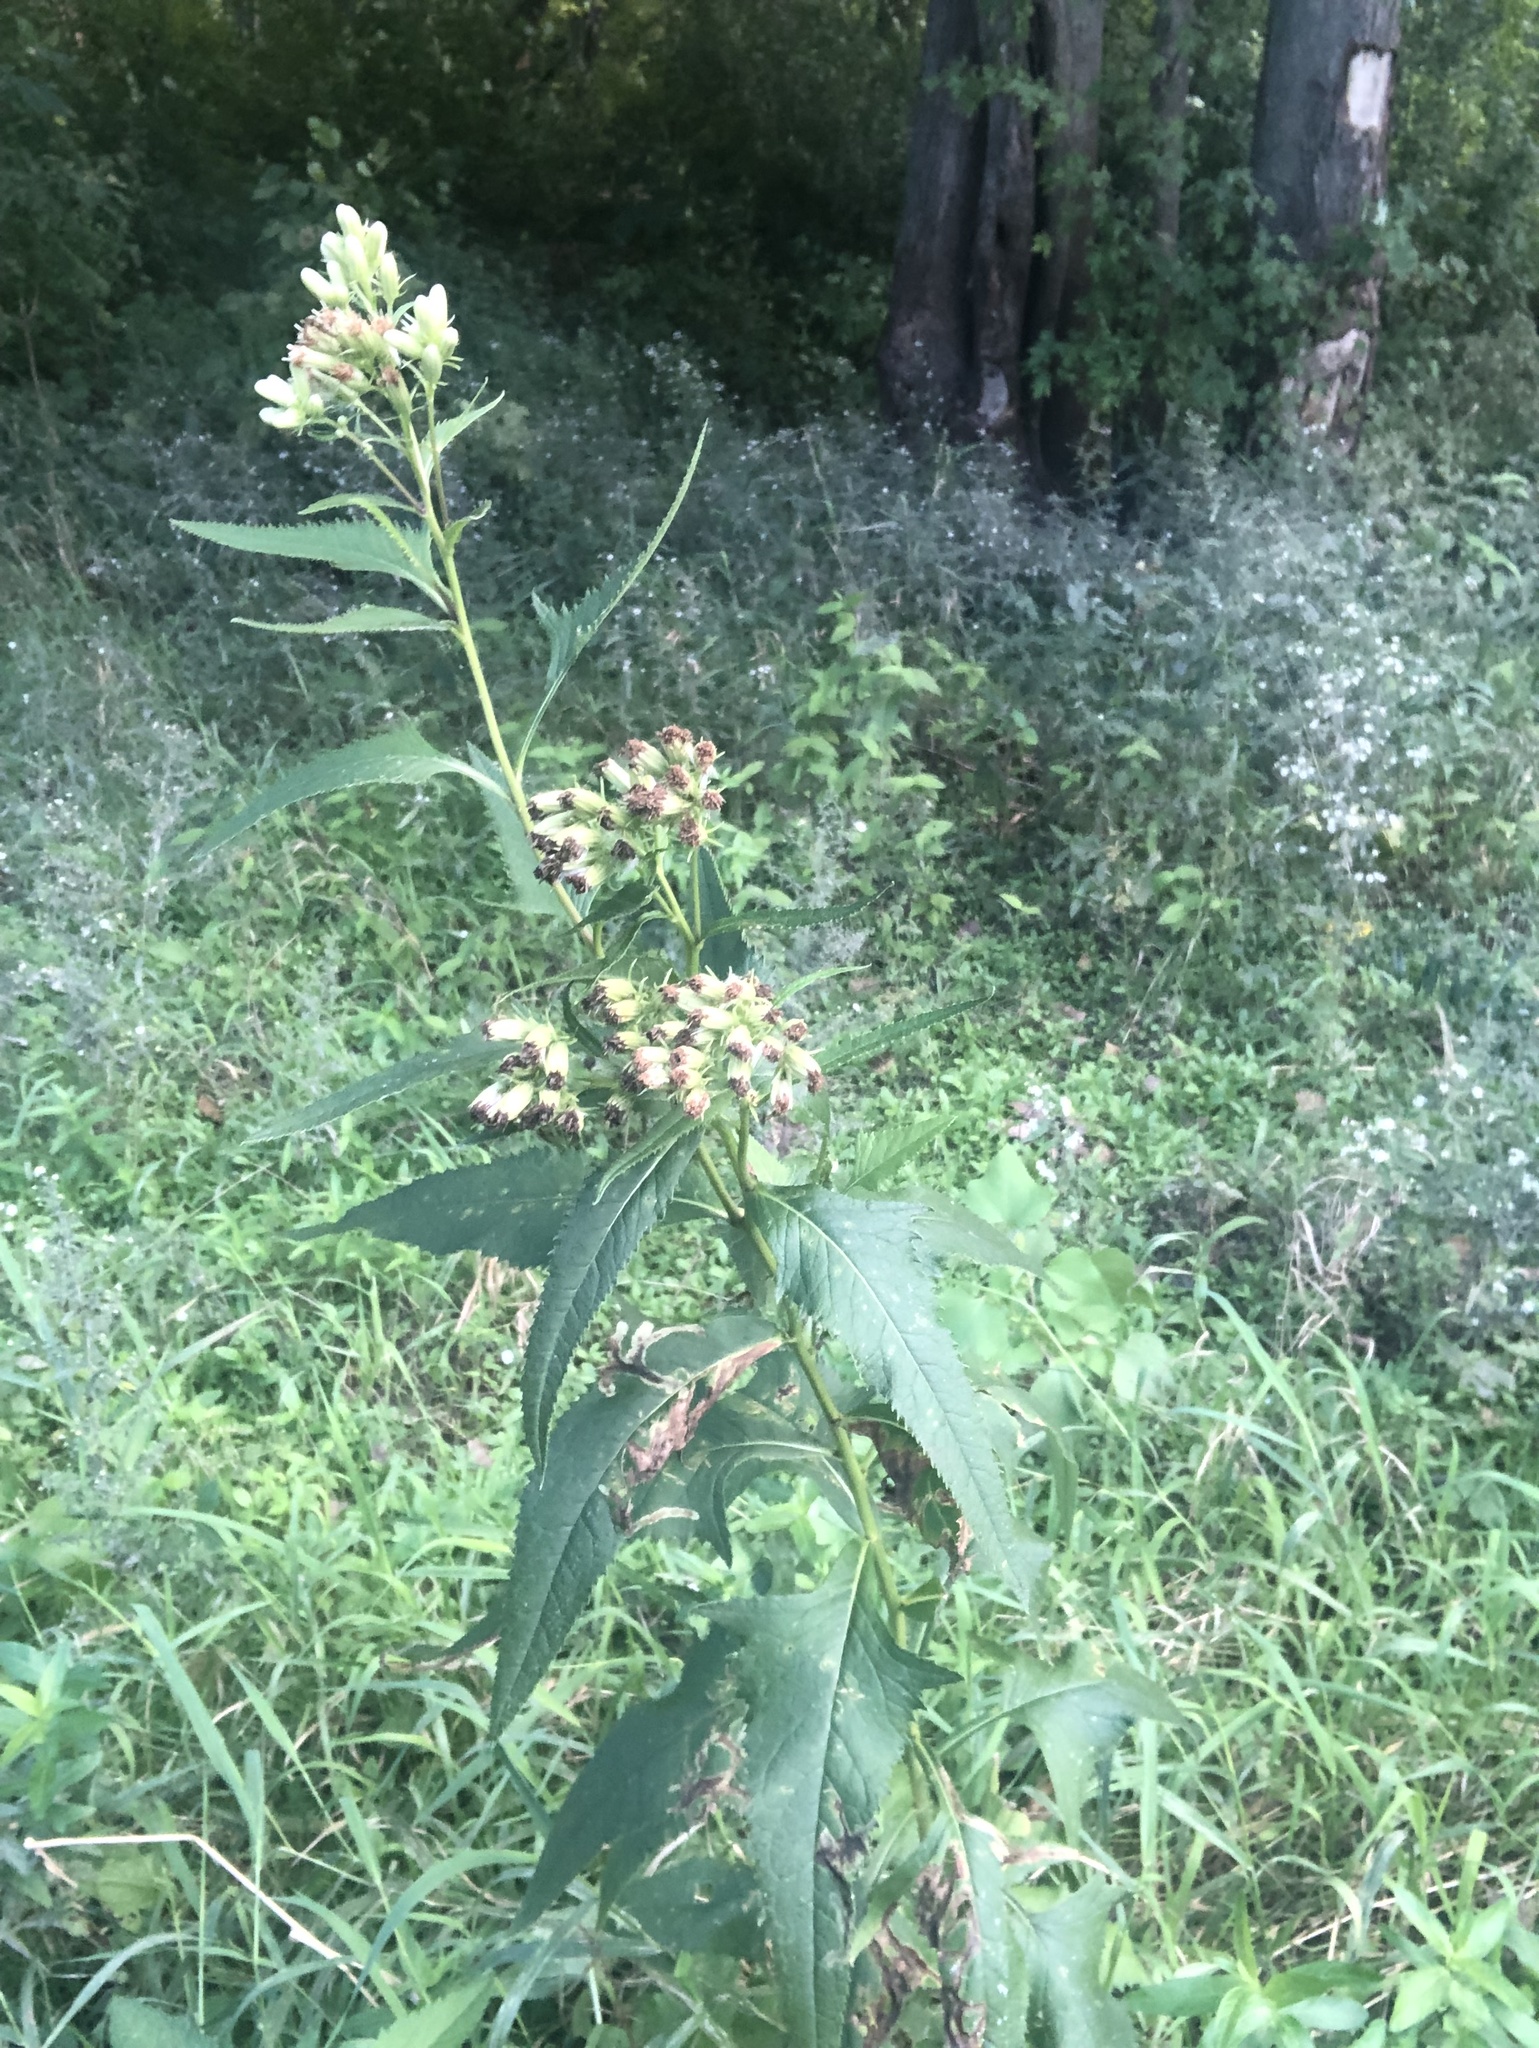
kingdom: Plantae
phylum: Tracheophyta
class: Magnoliopsida
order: Asterales
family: Asteraceae
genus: Hasteola
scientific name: Hasteola suaveolens
